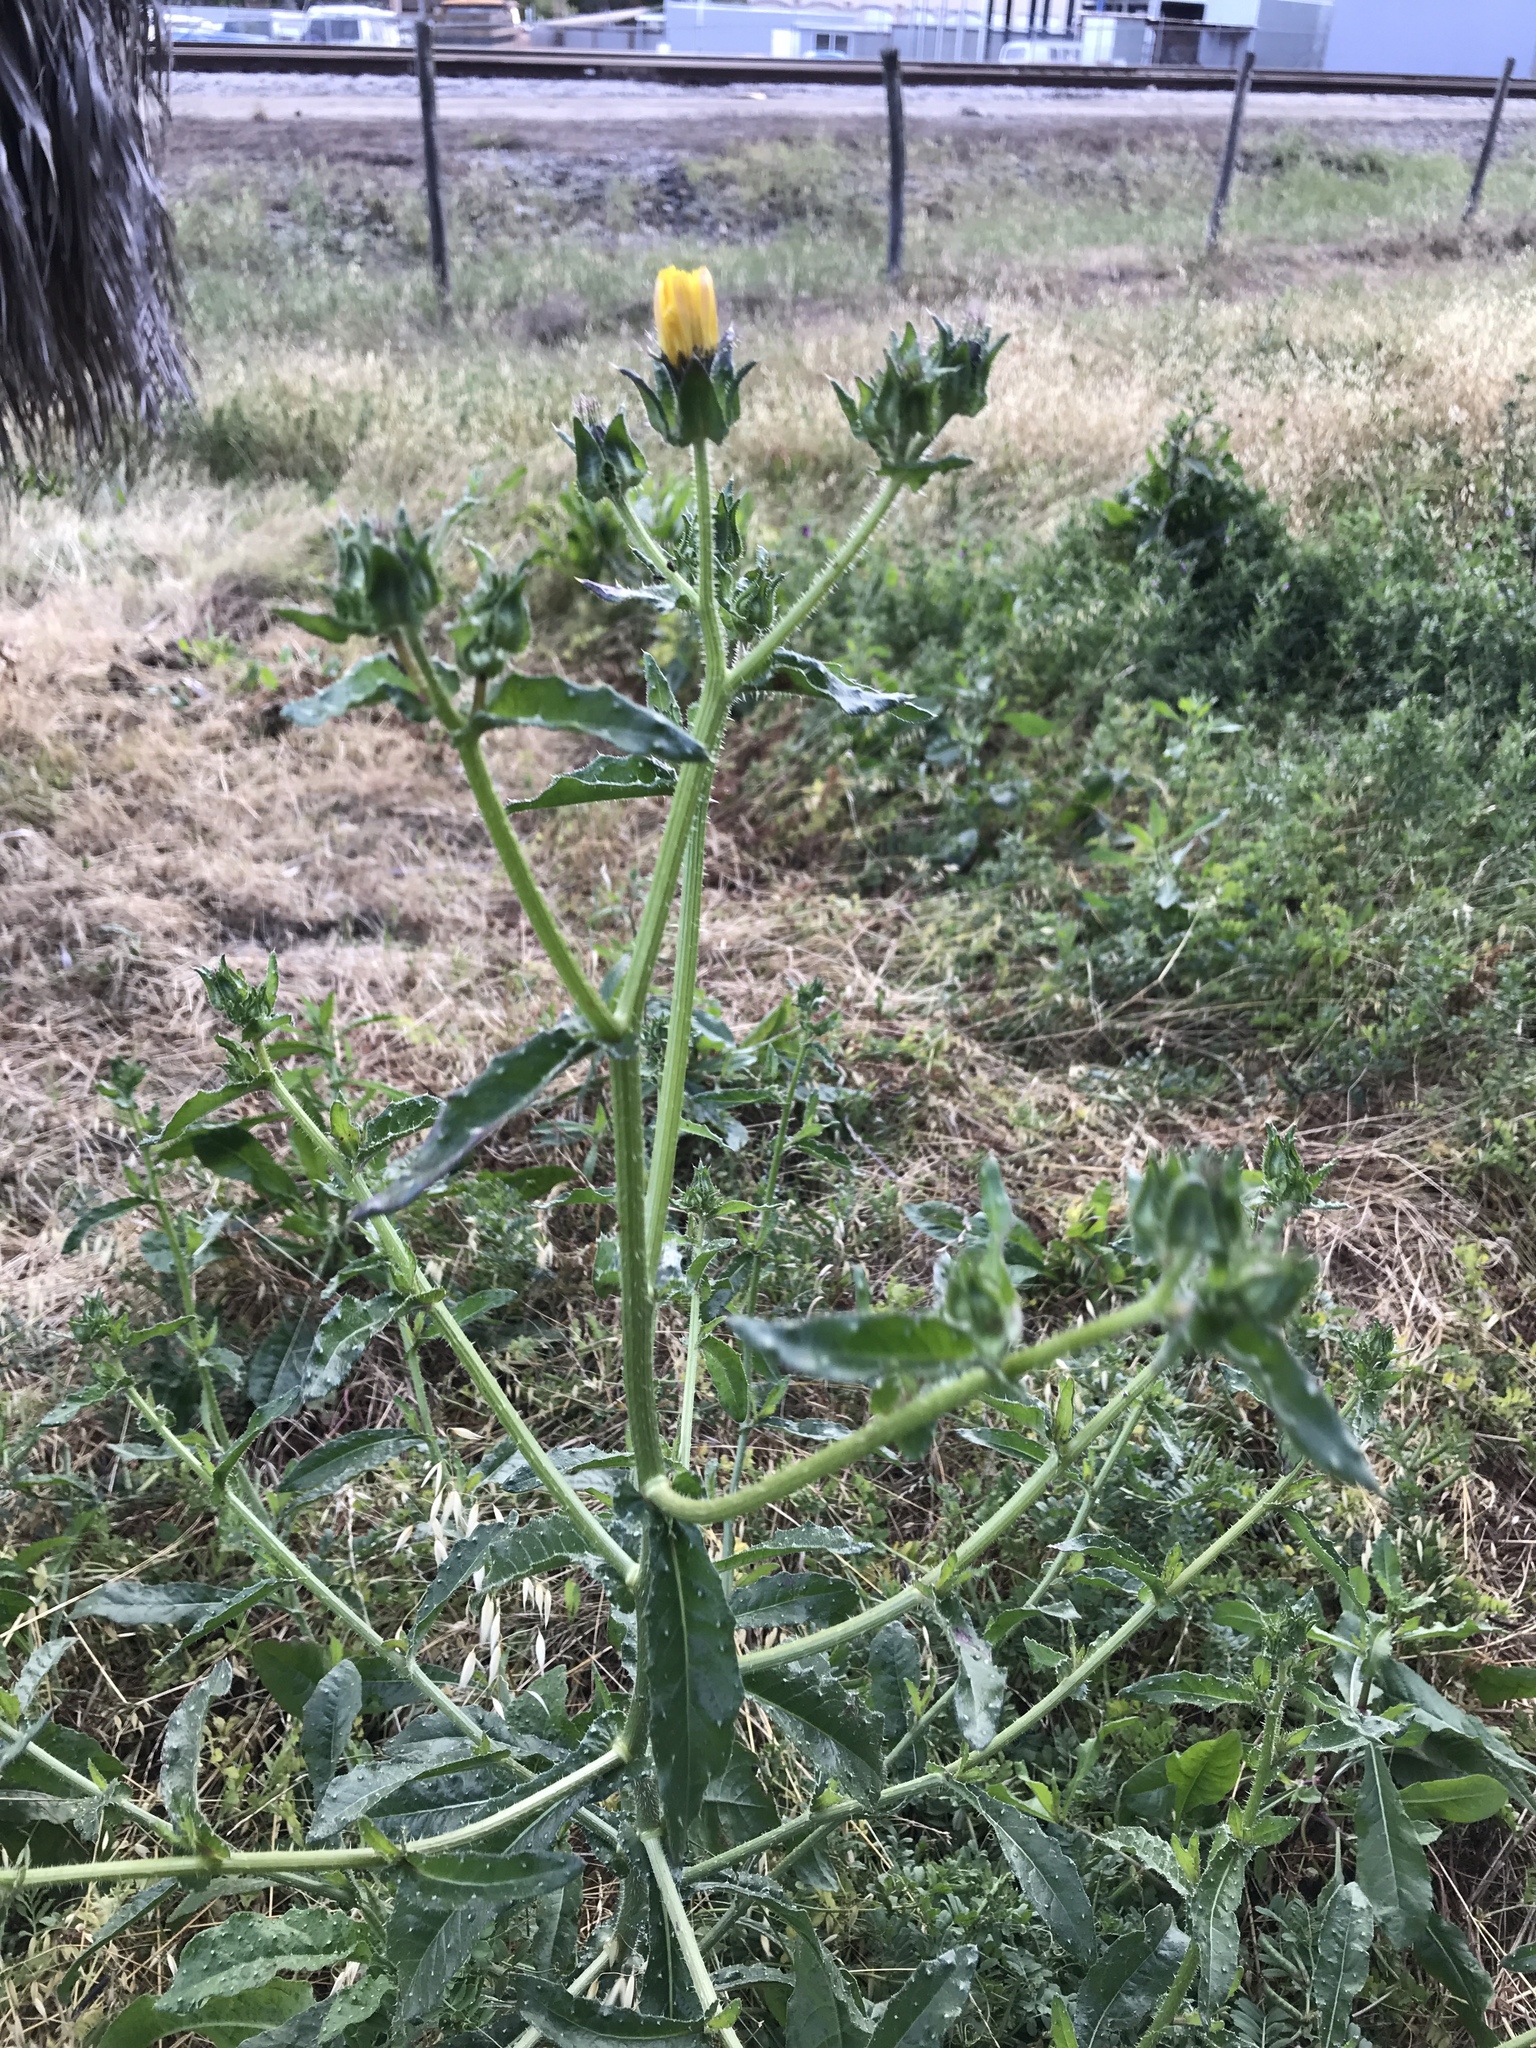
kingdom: Plantae
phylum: Tracheophyta
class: Magnoliopsida
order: Asterales
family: Asteraceae
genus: Helminthotheca
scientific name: Helminthotheca echioides
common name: Ox-tongue
